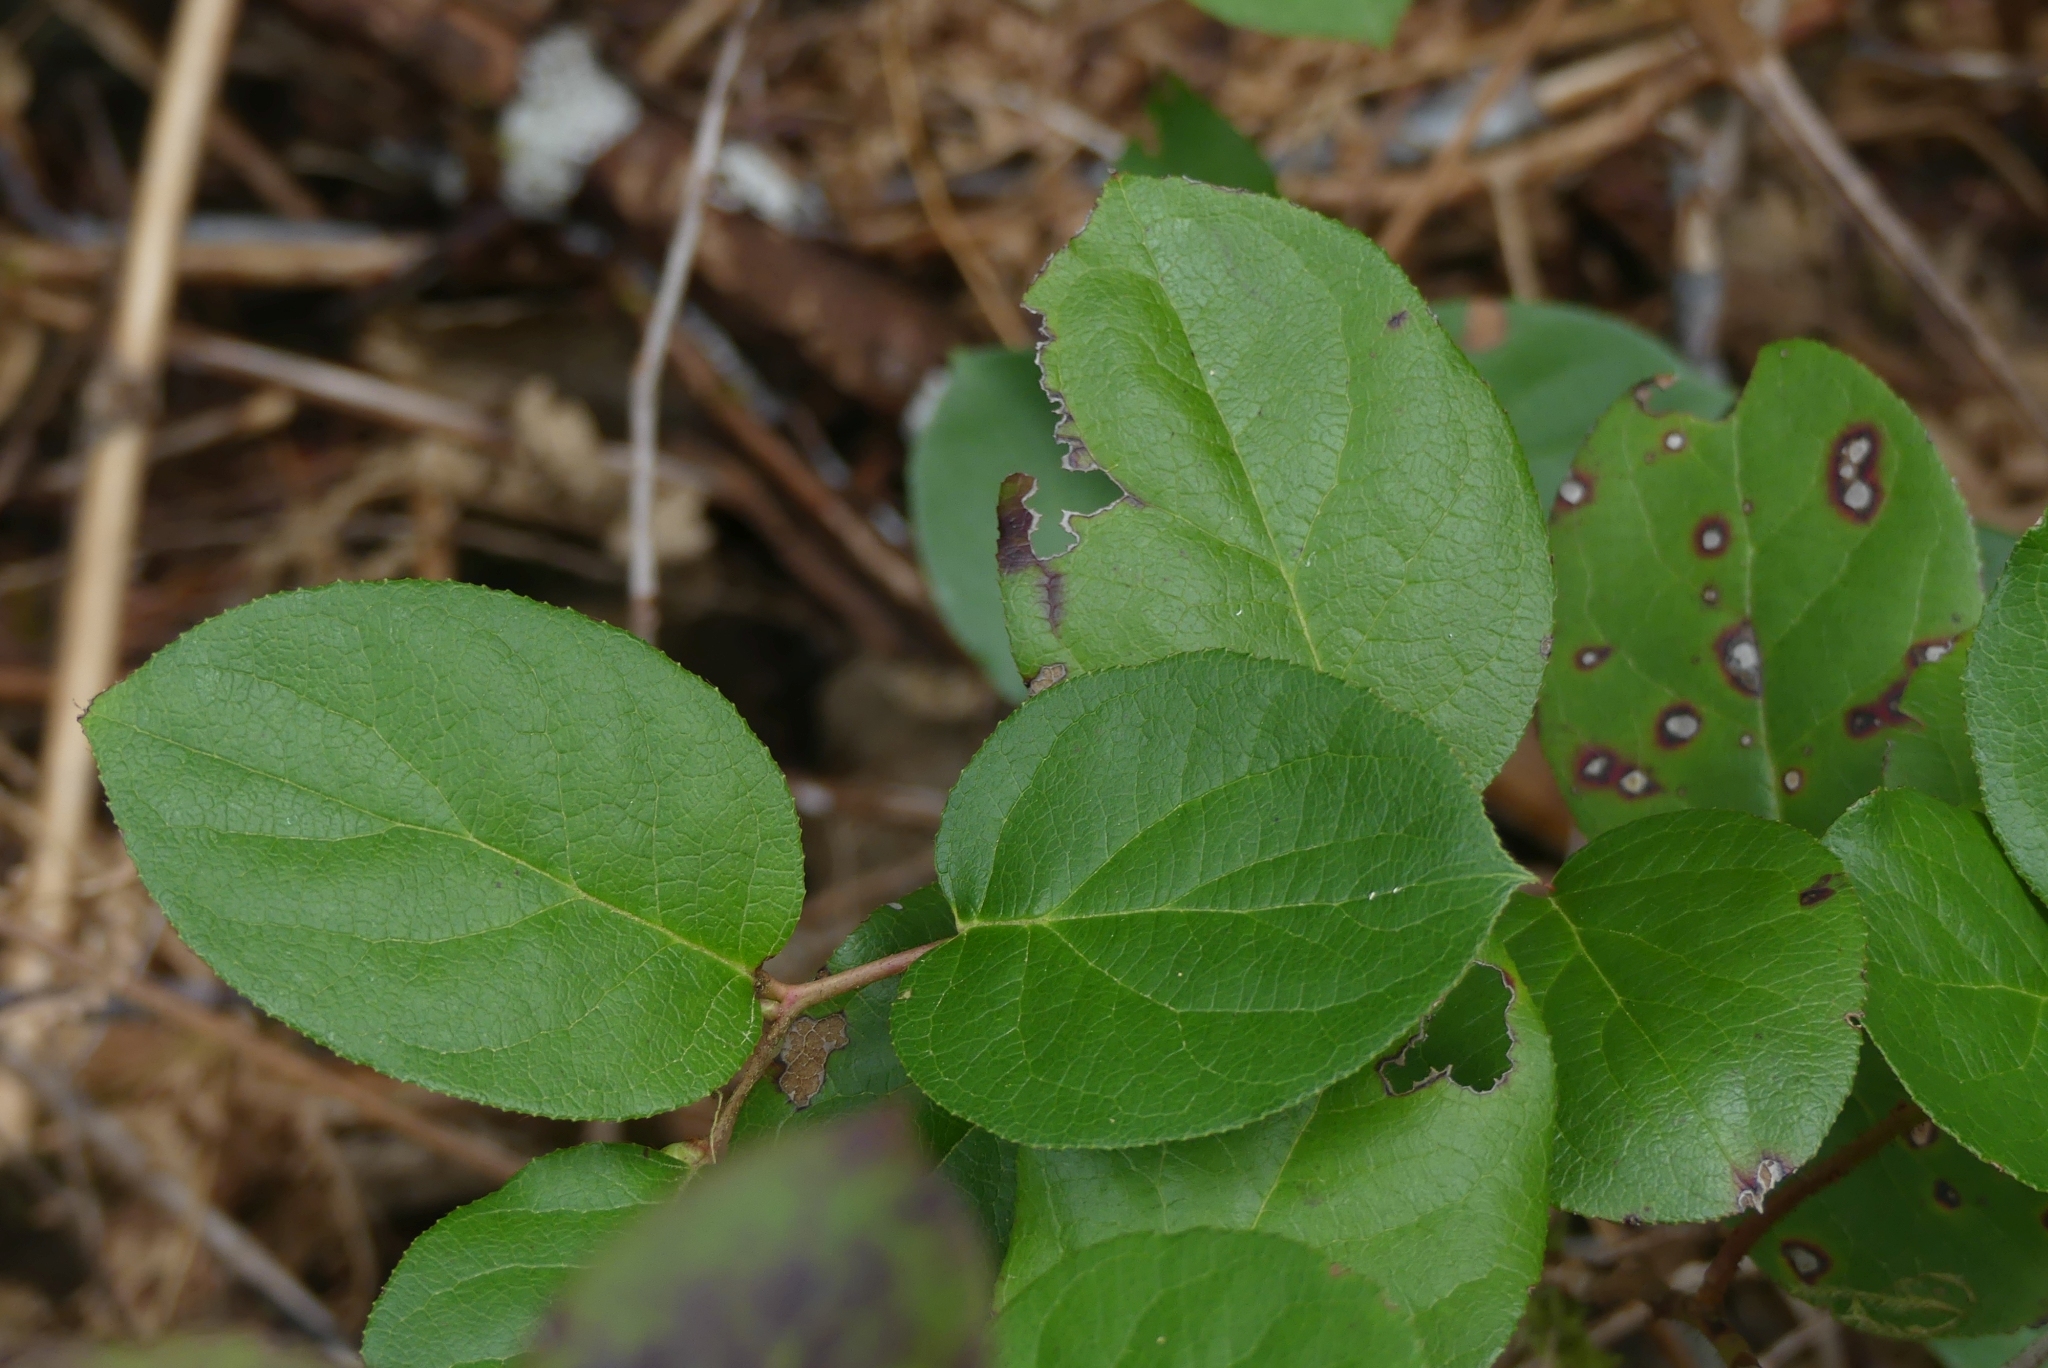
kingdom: Plantae
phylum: Tracheophyta
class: Magnoliopsida
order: Ericales
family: Ericaceae
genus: Gaultheria
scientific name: Gaultheria shallon
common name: Shallon
